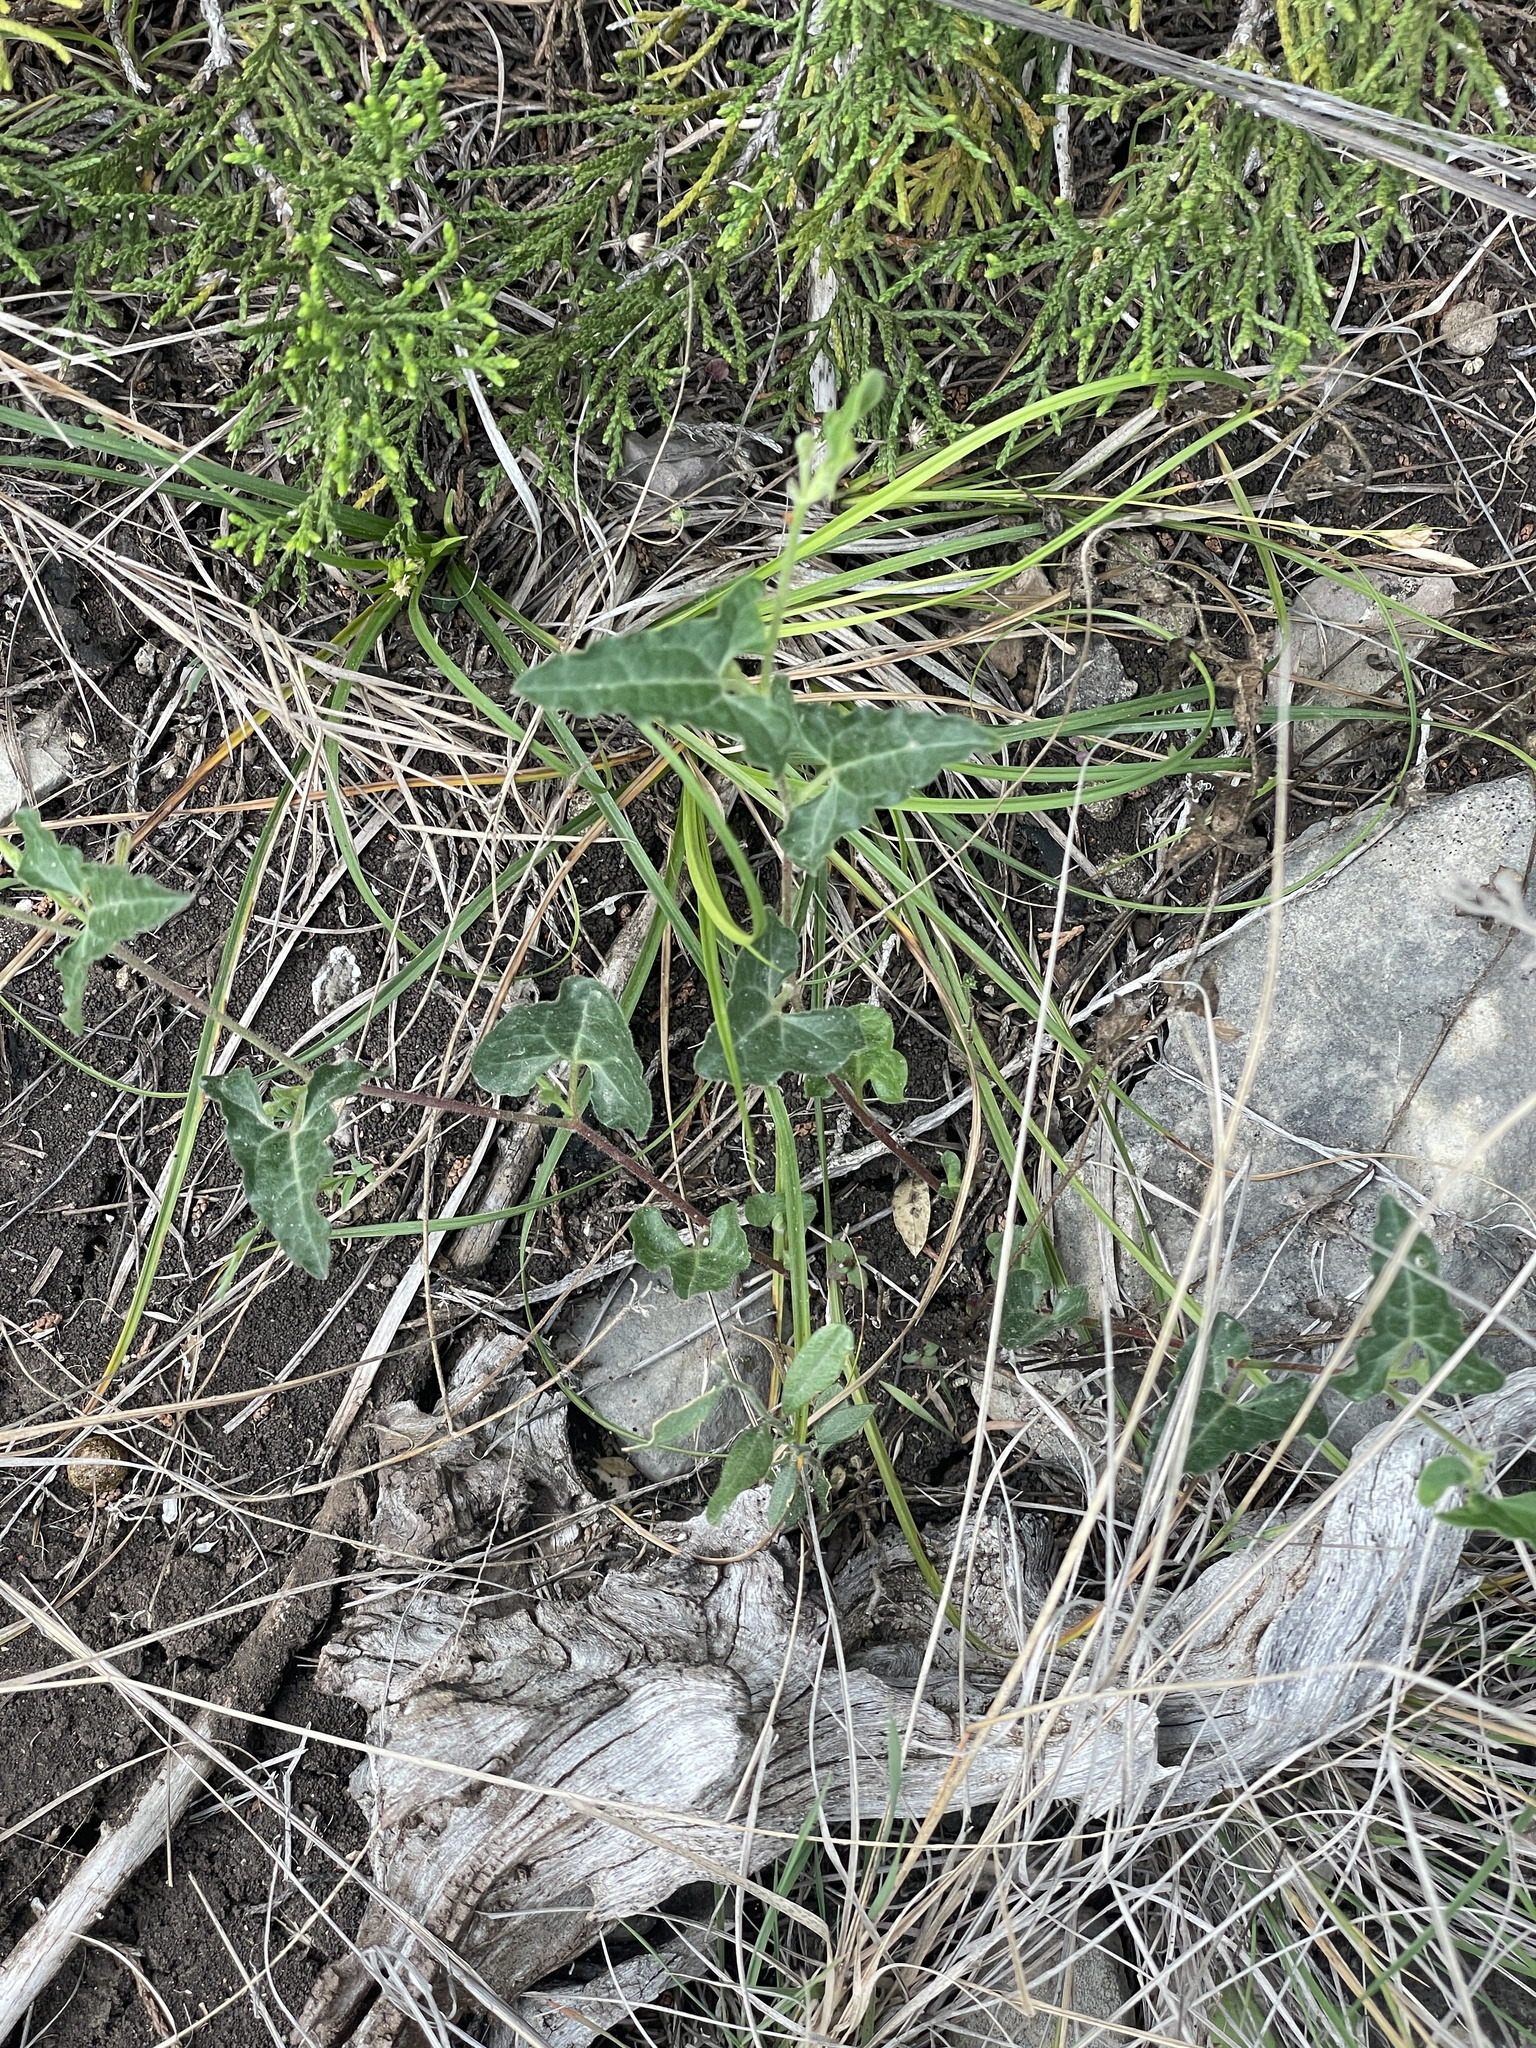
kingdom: Plantae
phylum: Tracheophyta
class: Magnoliopsida
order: Piperales
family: Aristolochiaceae
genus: Aristolochia
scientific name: Aristolochia coryi
